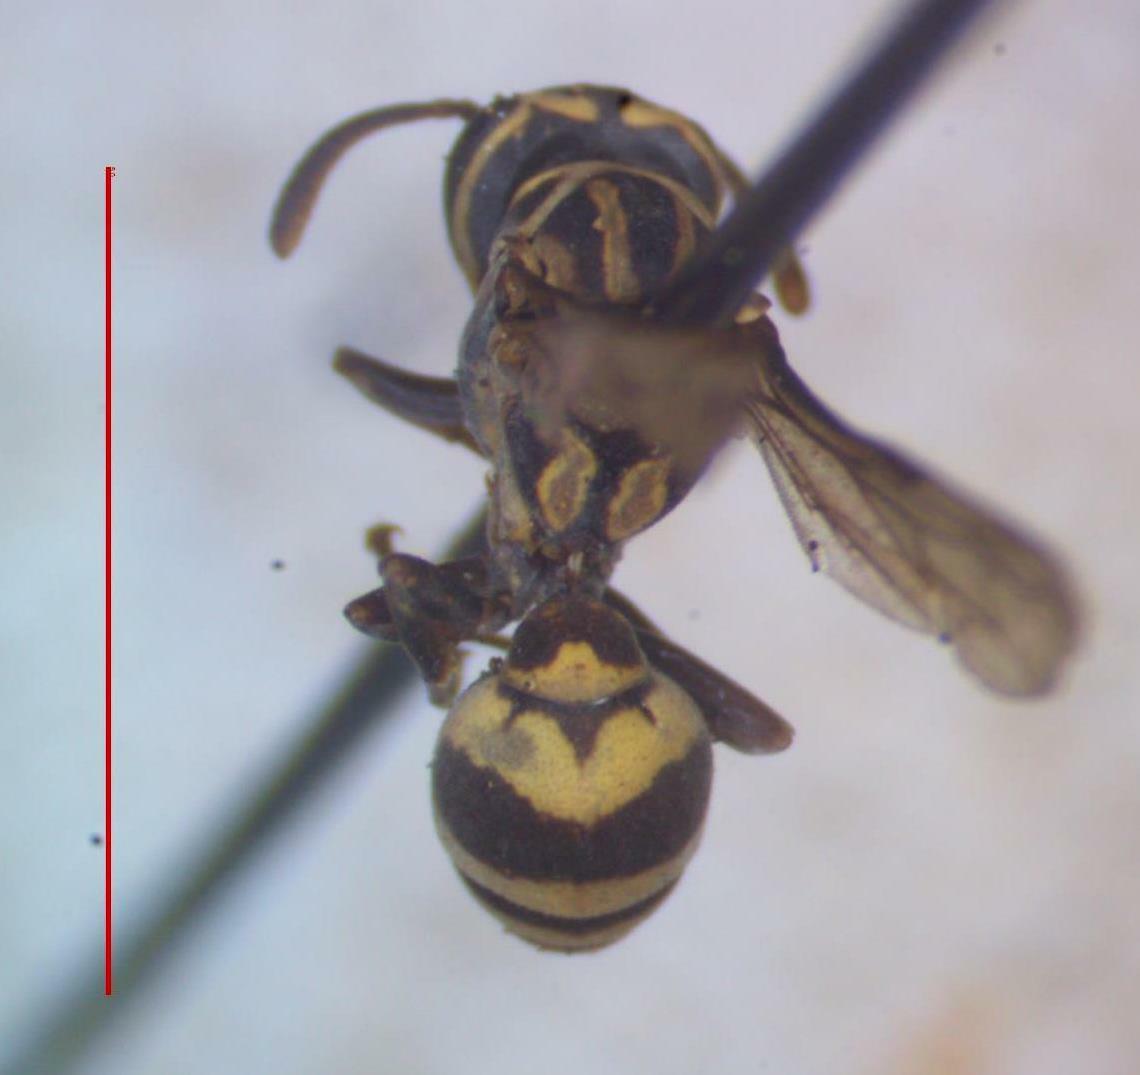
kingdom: Animalia
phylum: Arthropoda
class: Insecta
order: Hymenoptera
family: Vespidae
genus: Protopolybia
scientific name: Protopolybia acutiscutis
